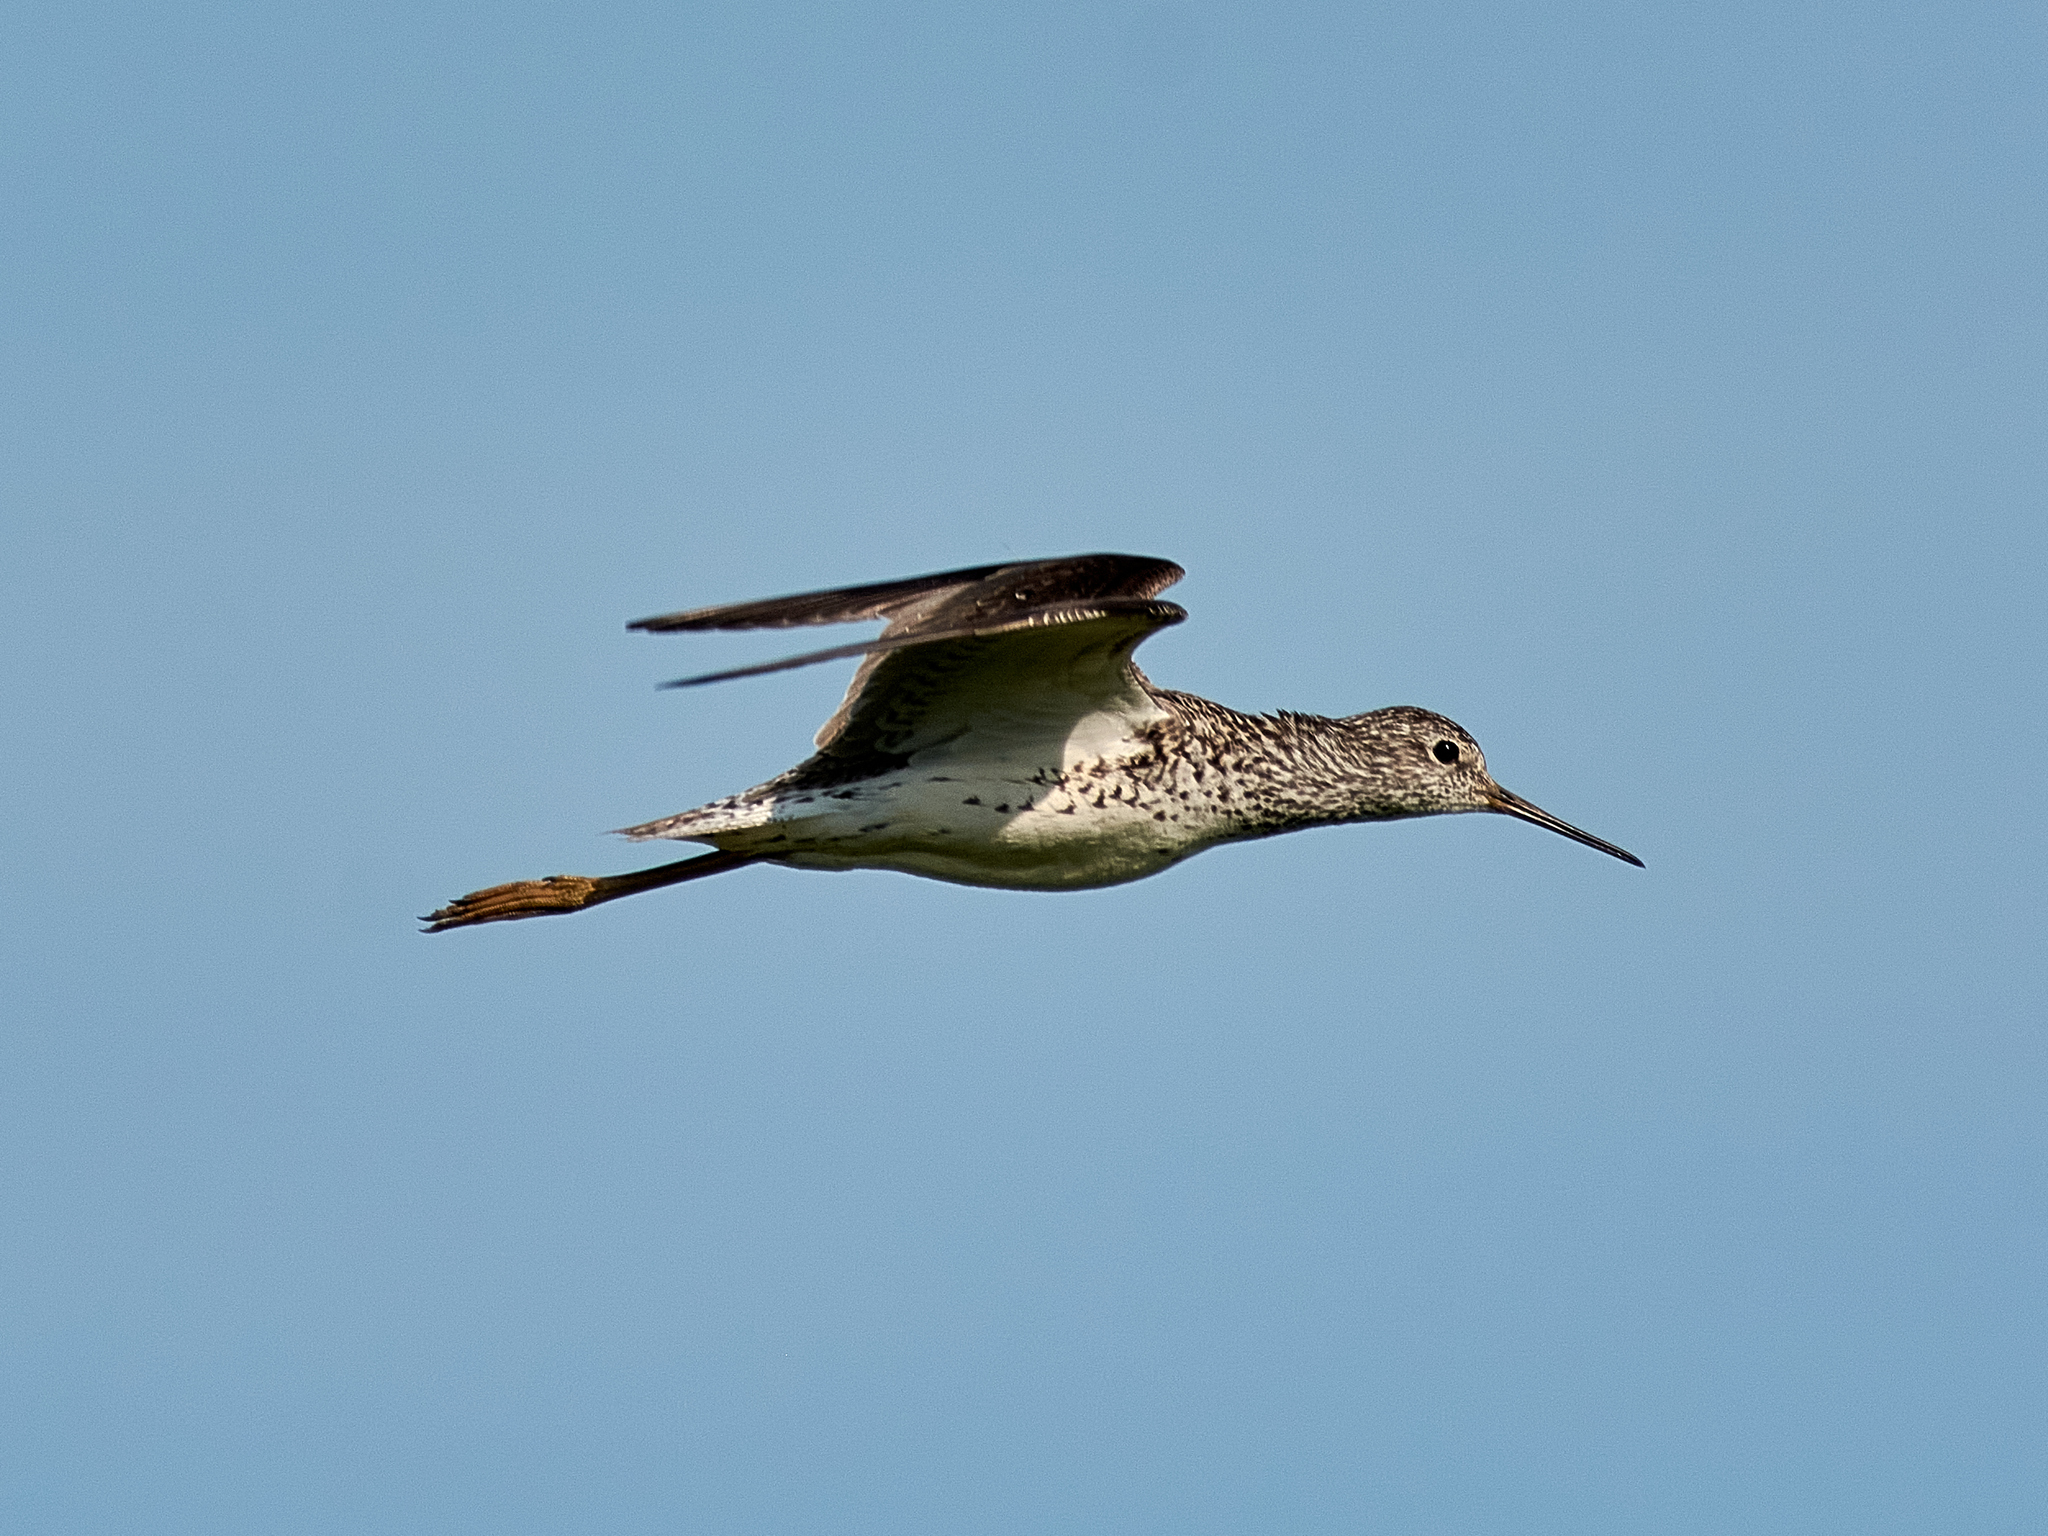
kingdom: Animalia
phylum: Chordata
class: Aves
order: Charadriiformes
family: Scolopacidae
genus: Tringa
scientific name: Tringa stagnatilis
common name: Marsh sandpiper
